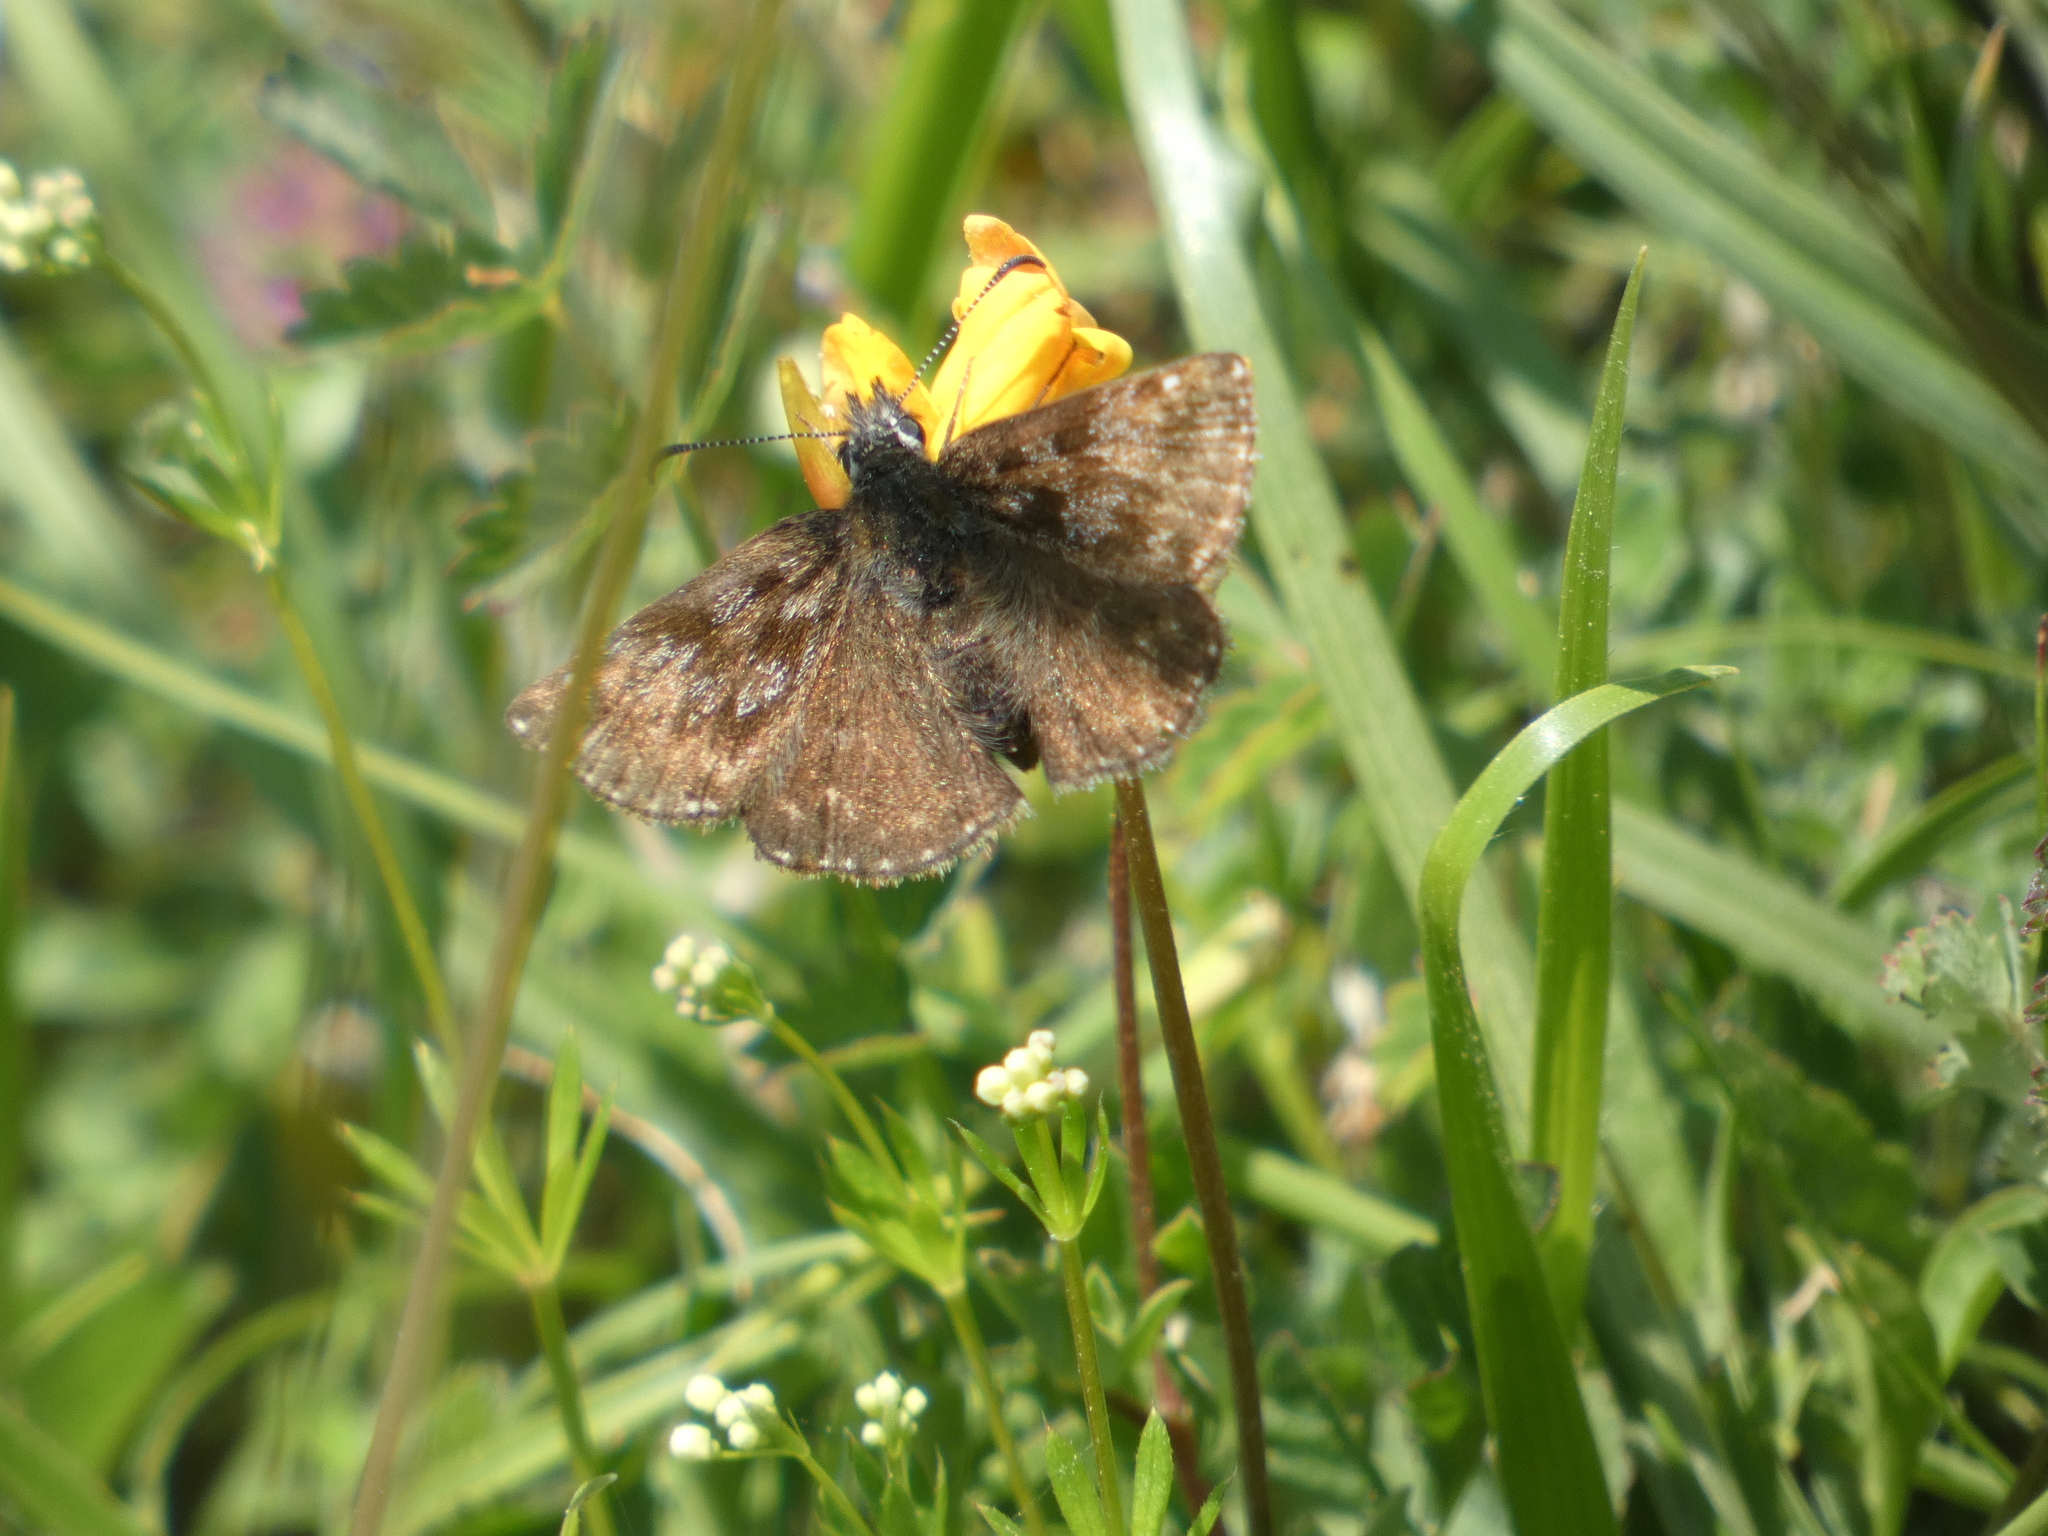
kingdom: Animalia
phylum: Arthropoda
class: Insecta
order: Lepidoptera
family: Hesperiidae
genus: Erynnis
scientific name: Erynnis tages
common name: Dingy skipper
